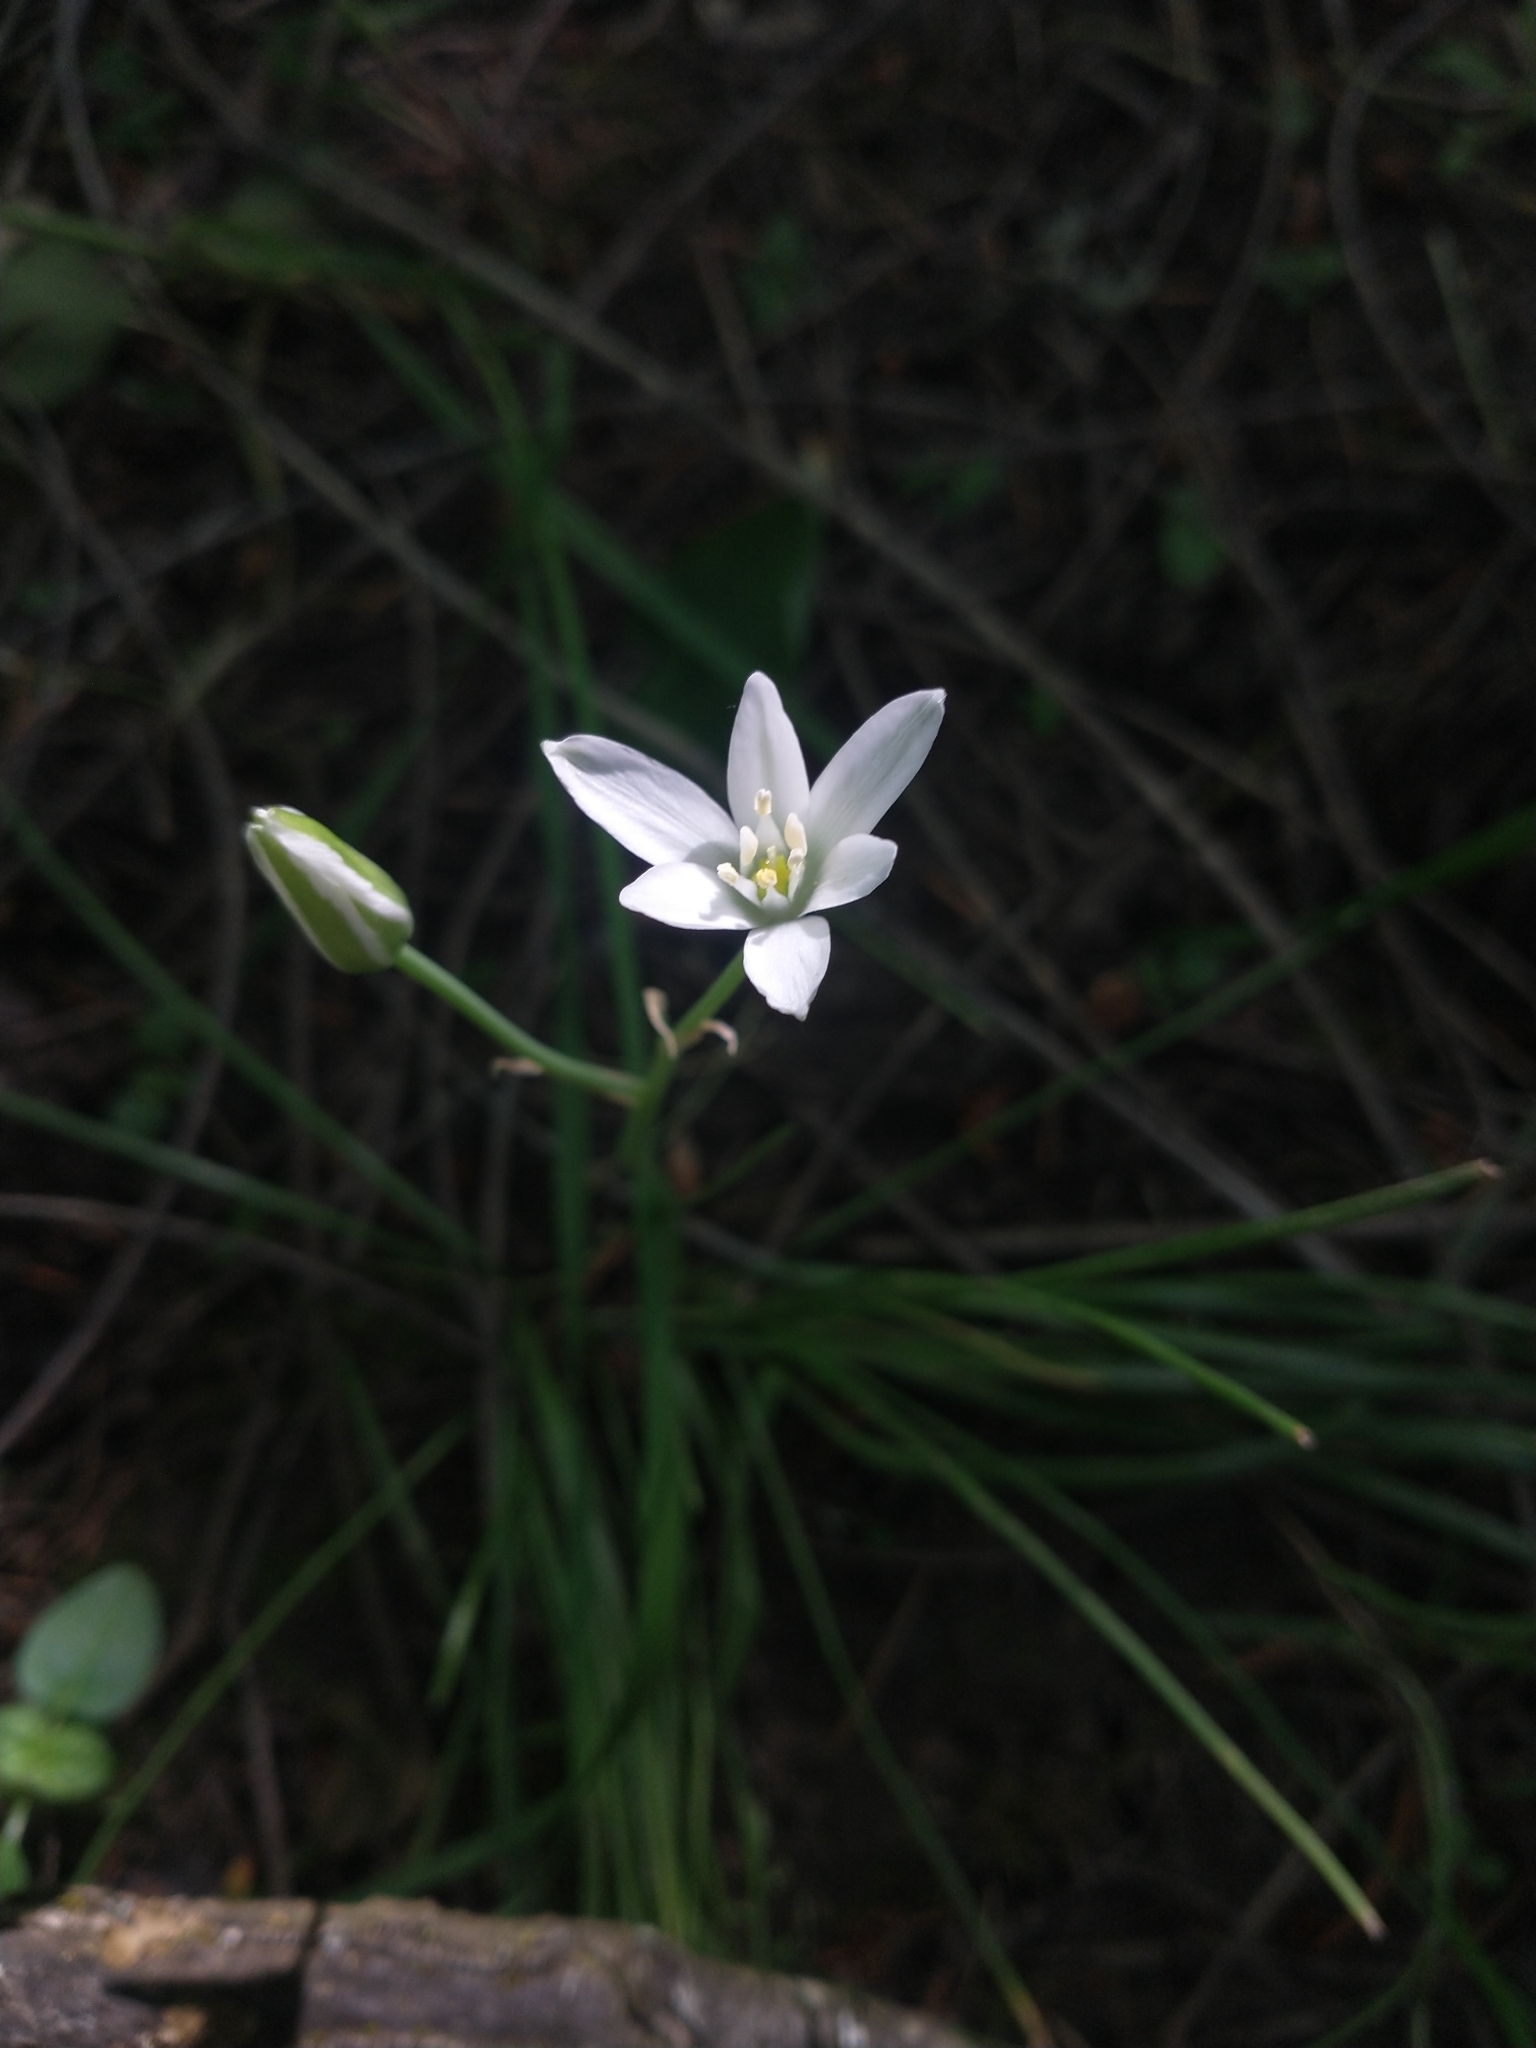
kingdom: Plantae
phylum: Tracheophyta
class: Liliopsida
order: Asparagales
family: Asparagaceae
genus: Ornithogalum
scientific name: Ornithogalum umbellatum
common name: Garden star-of-bethlehem
